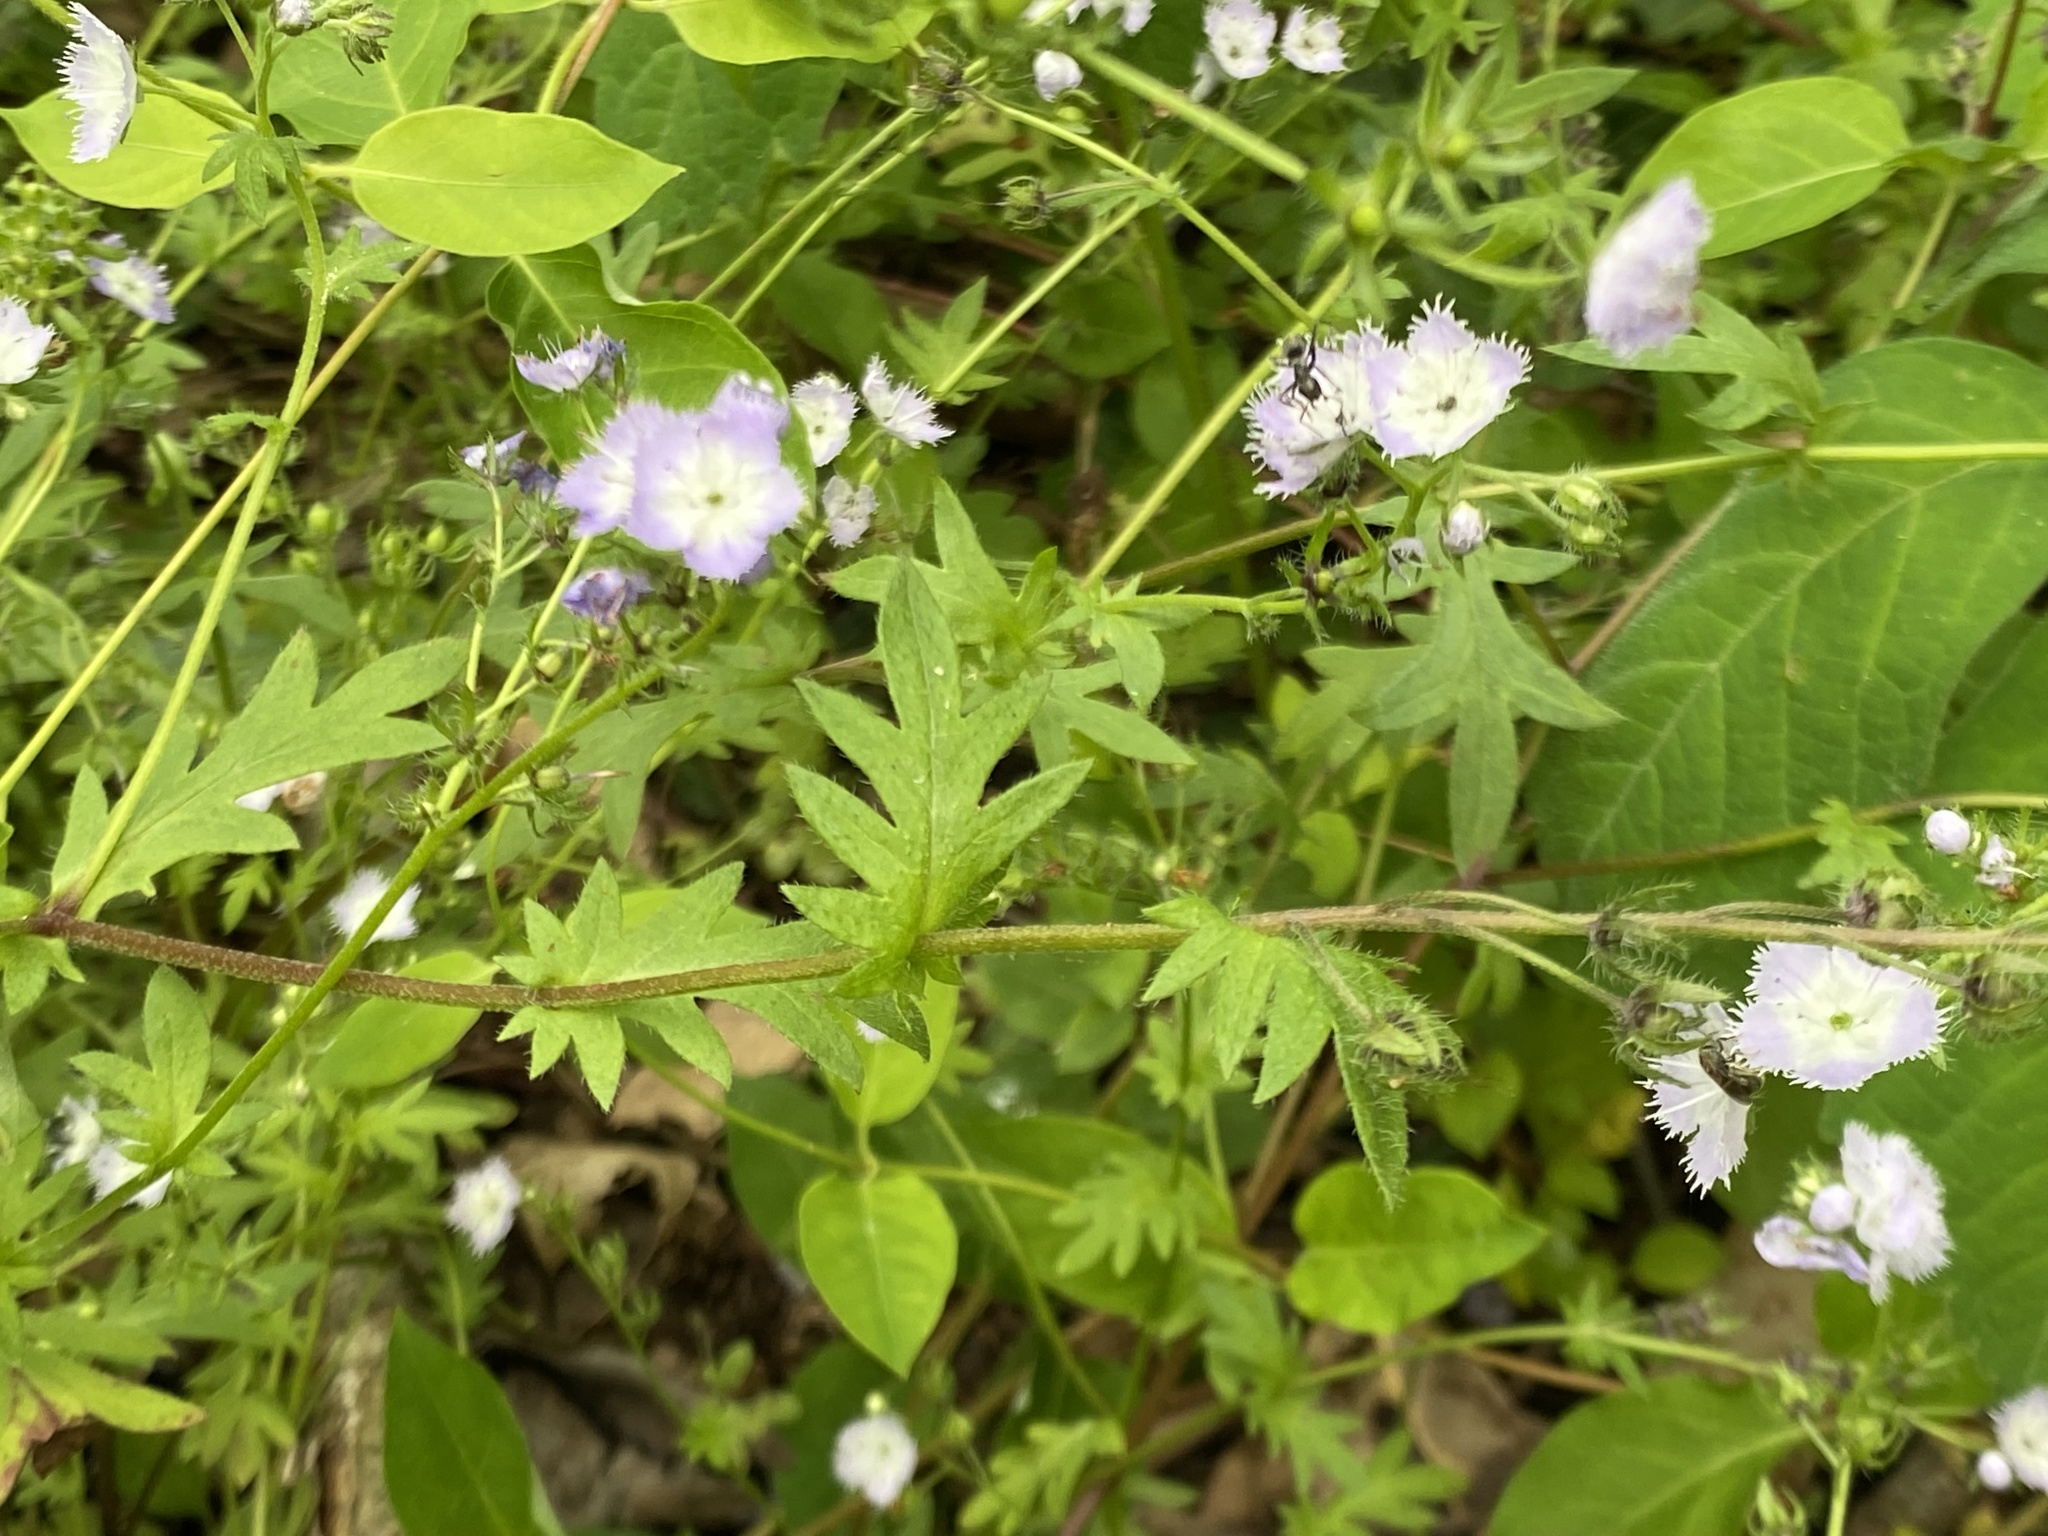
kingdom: Plantae
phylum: Tracheophyta
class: Magnoliopsida
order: Boraginales
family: Hydrophyllaceae
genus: Phacelia
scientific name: Phacelia purshii
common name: Miami-mist
